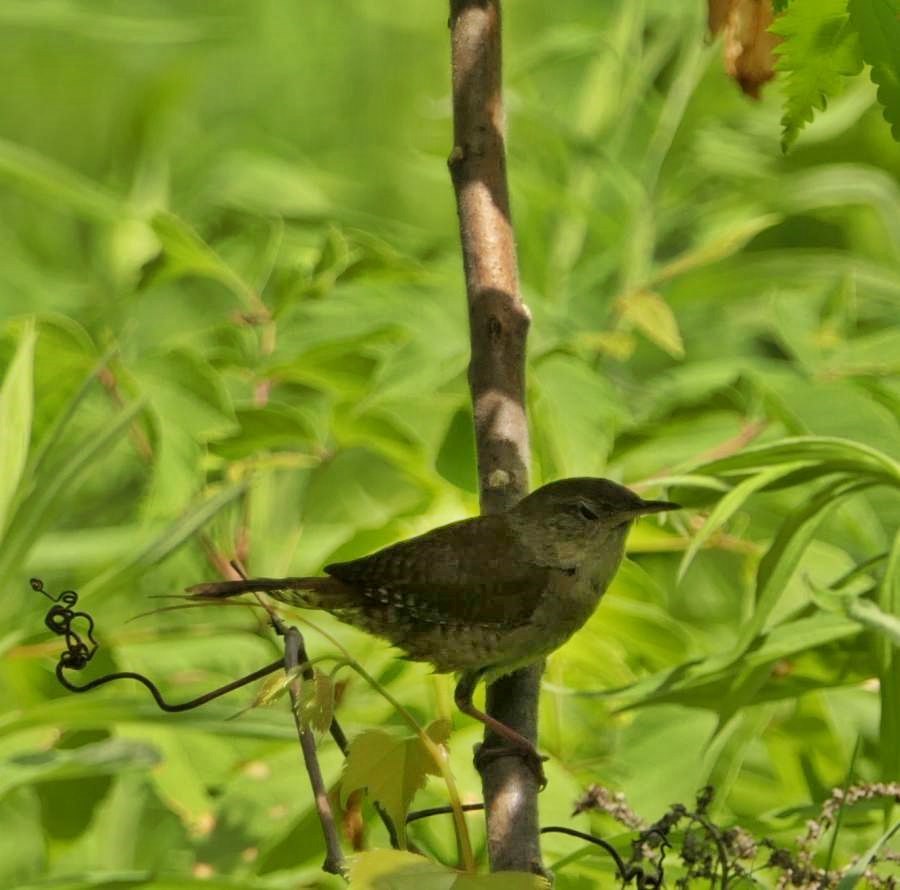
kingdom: Animalia
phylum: Chordata
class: Aves
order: Passeriformes
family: Troglodytidae
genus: Troglodytes
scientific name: Troglodytes aedon
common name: House wren
